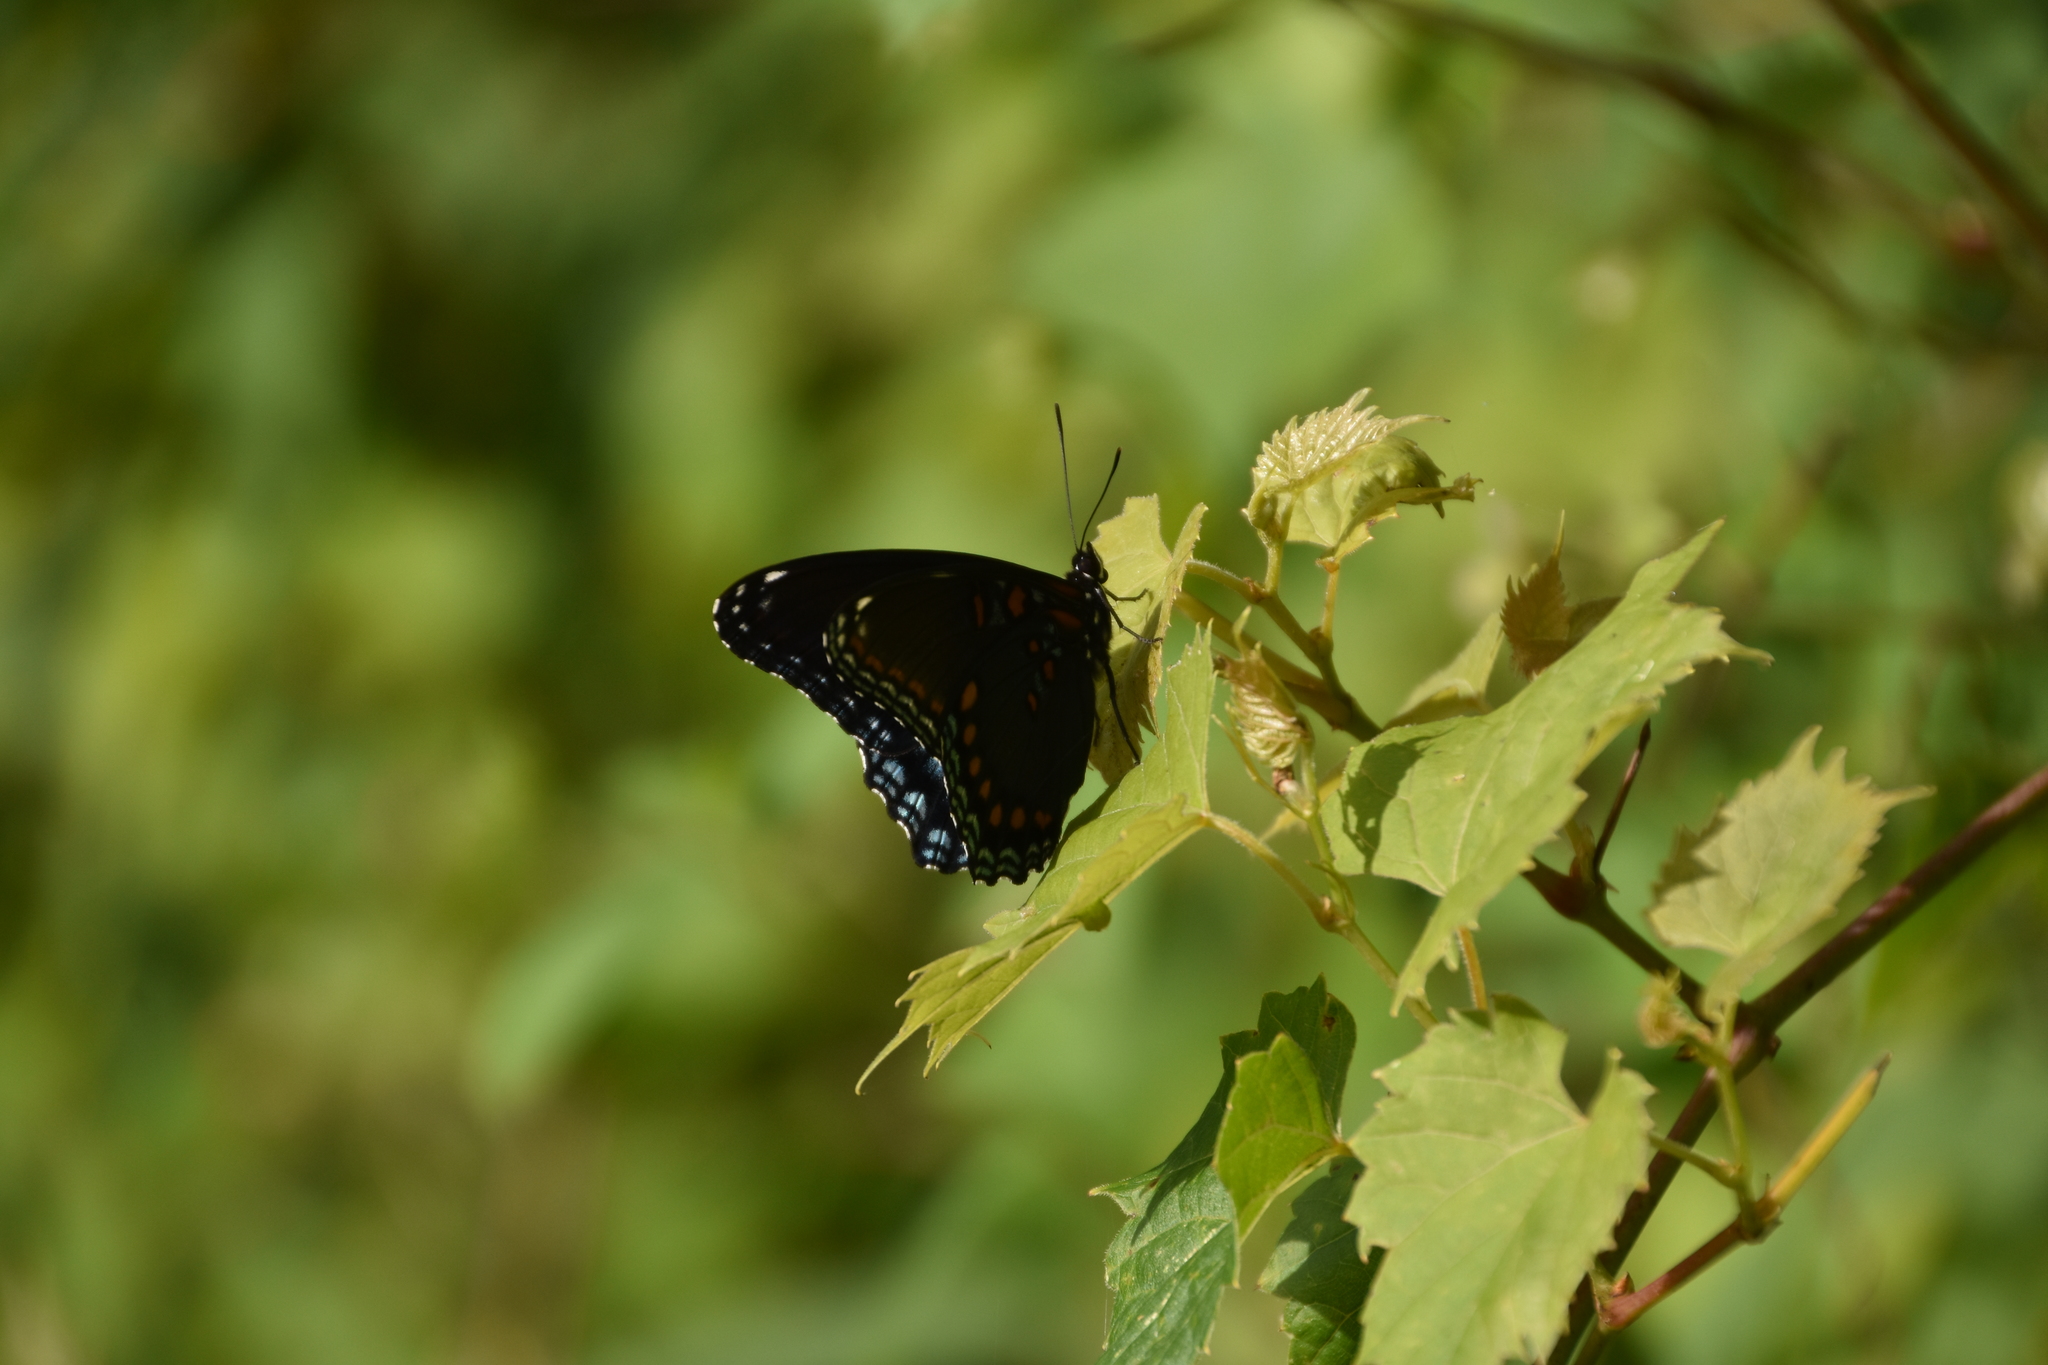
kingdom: Animalia
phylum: Arthropoda
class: Insecta
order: Lepidoptera
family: Nymphalidae
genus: Limenitis
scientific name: Limenitis astyanax
